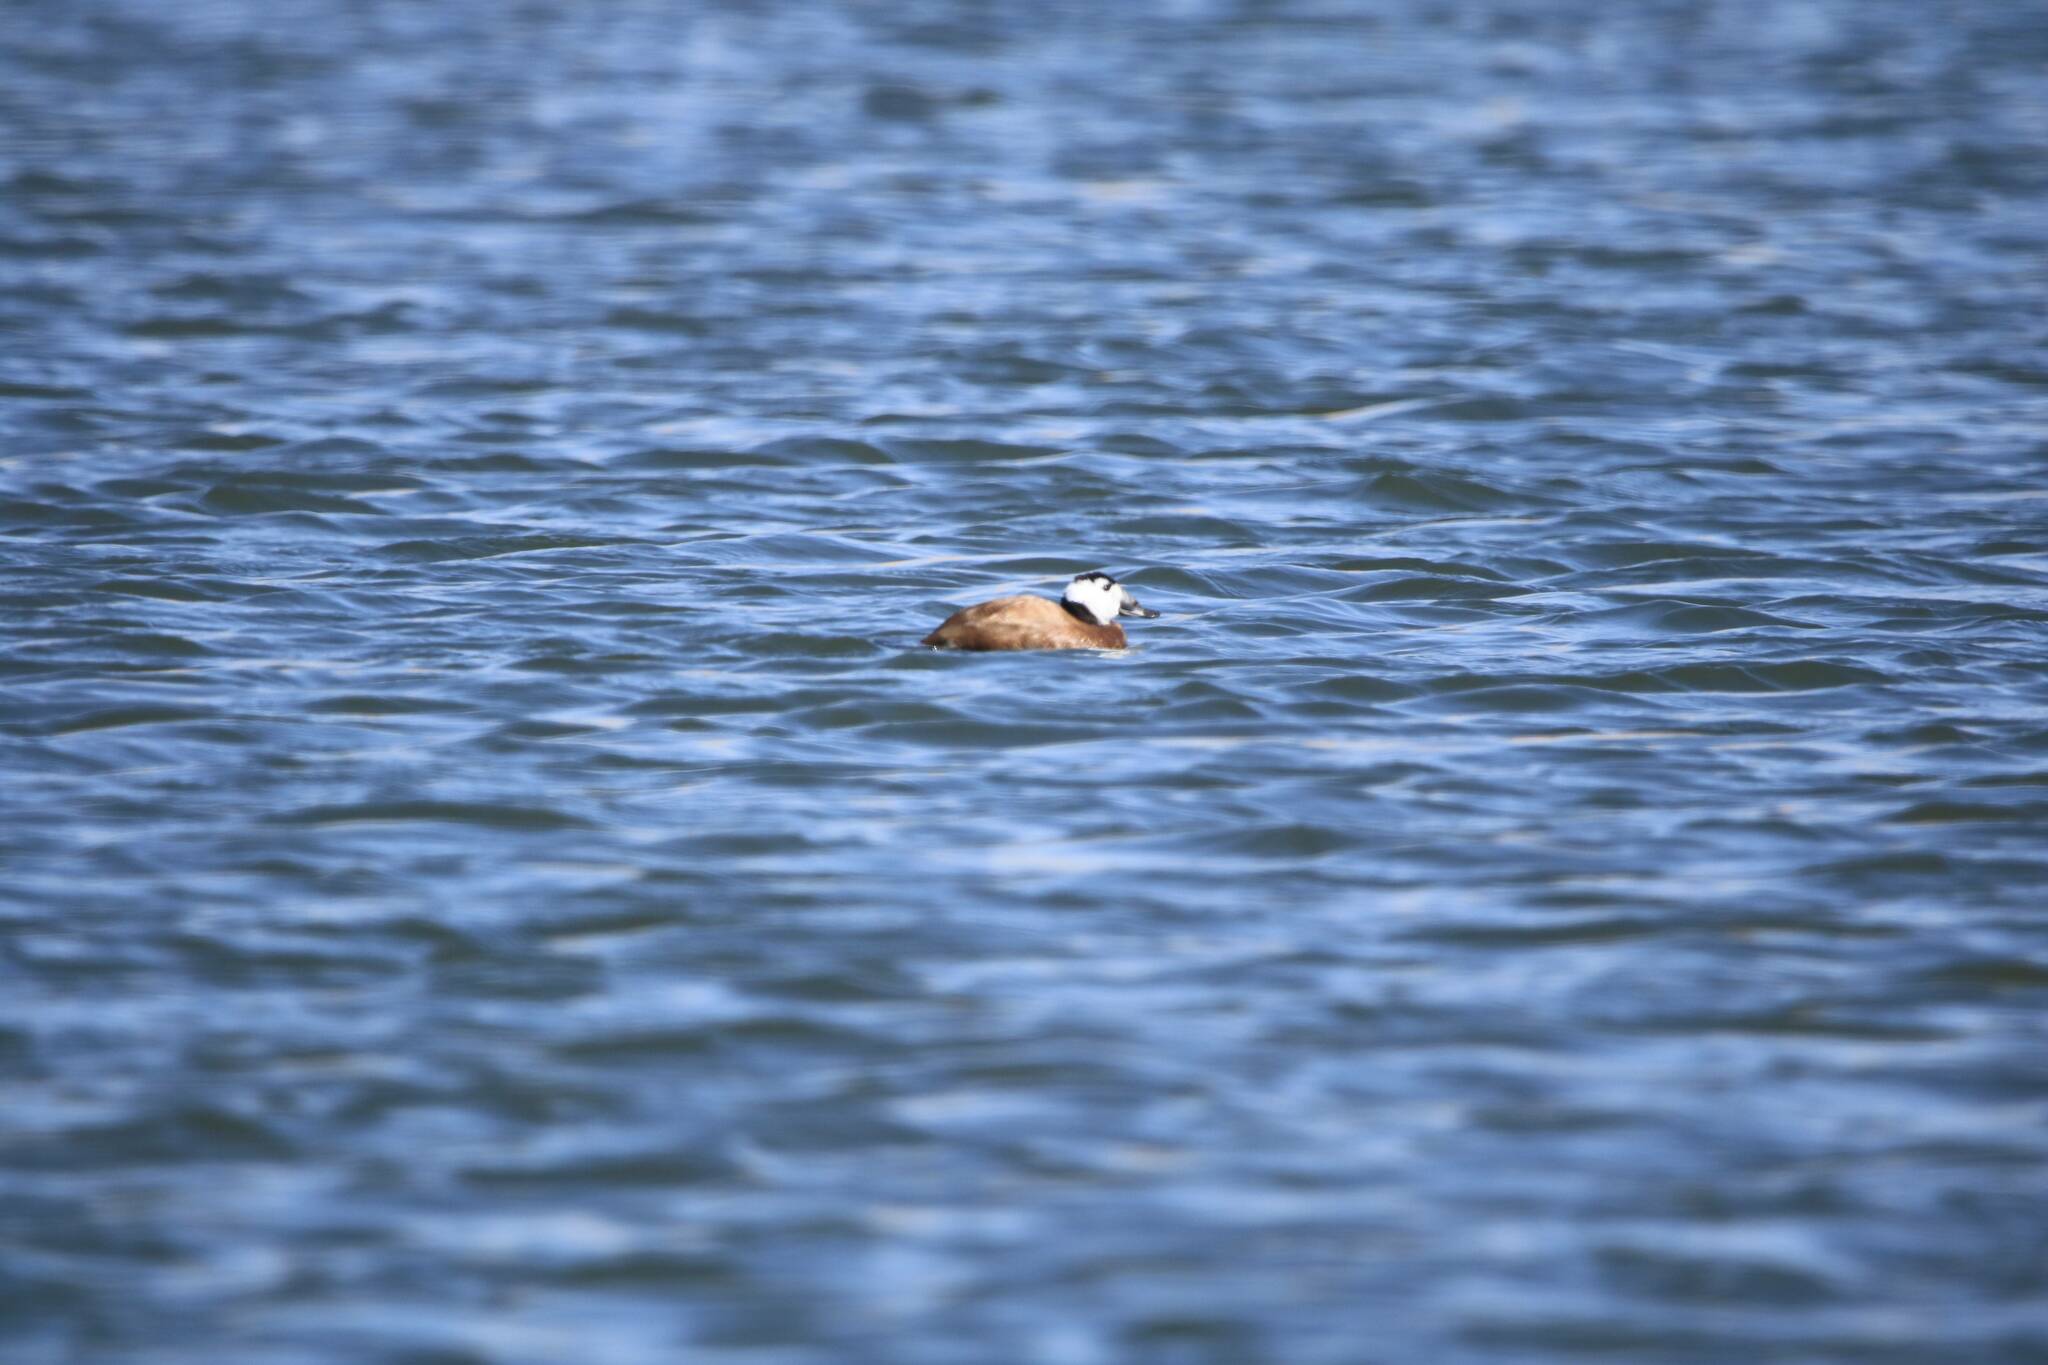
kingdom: Animalia
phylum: Chordata
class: Aves
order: Anseriformes
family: Anatidae
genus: Oxyura
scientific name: Oxyura leucocephala
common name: White-headed duck
